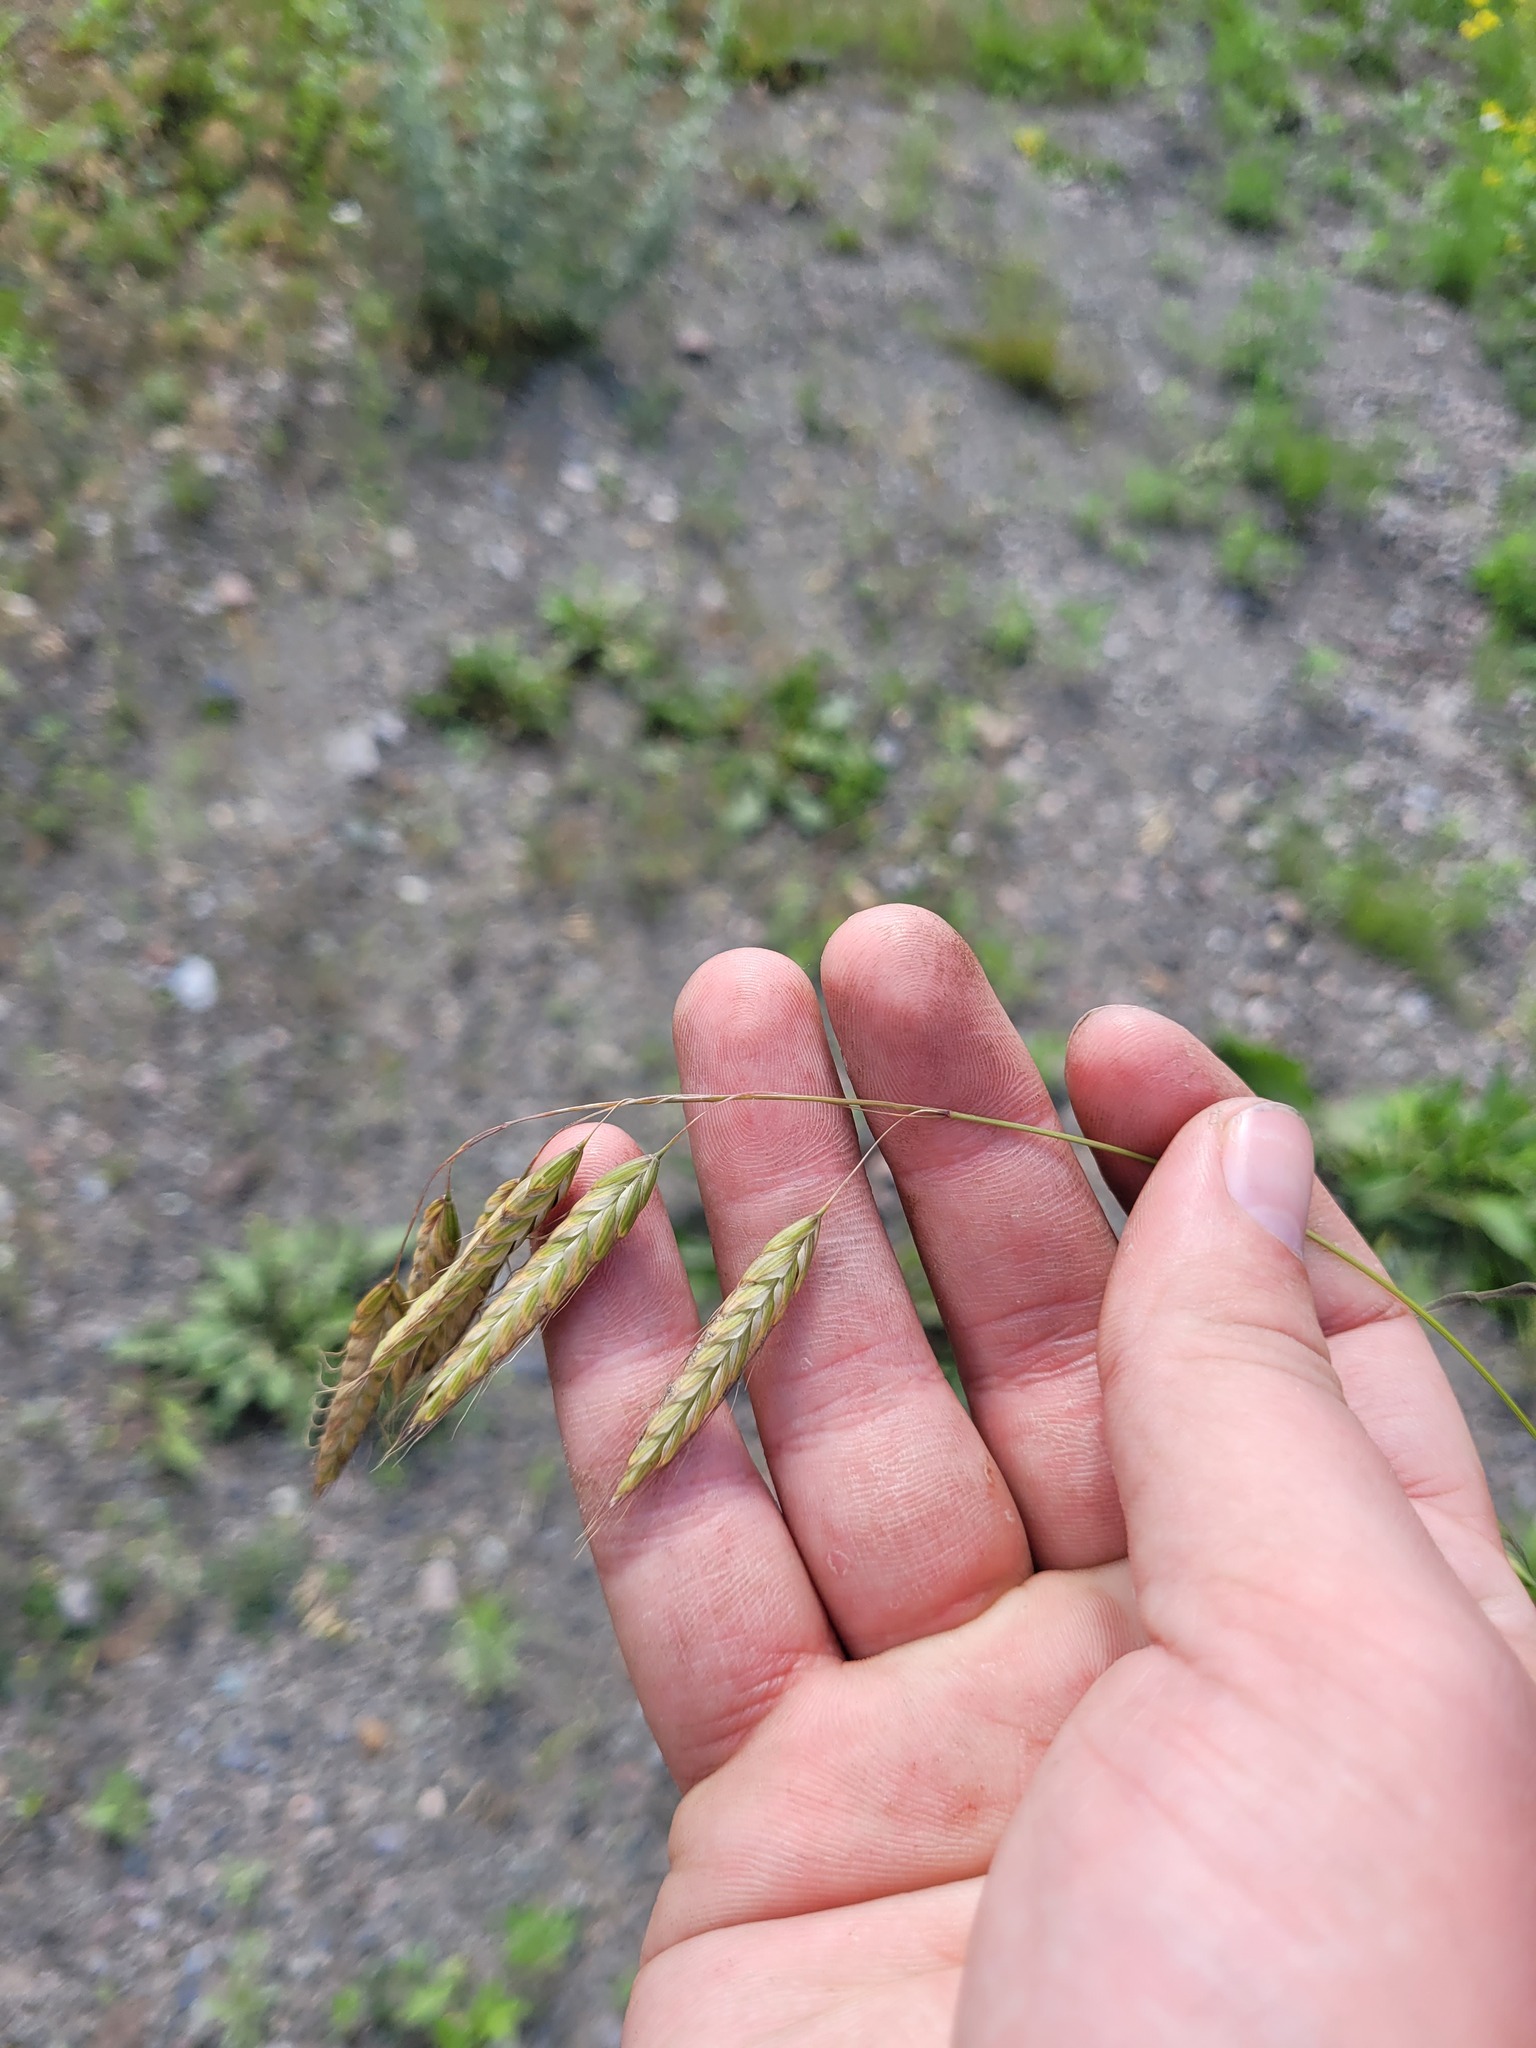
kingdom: Plantae
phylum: Tracheophyta
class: Liliopsida
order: Poales
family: Poaceae
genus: Bromus
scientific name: Bromus squarrosus
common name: Corn brome
